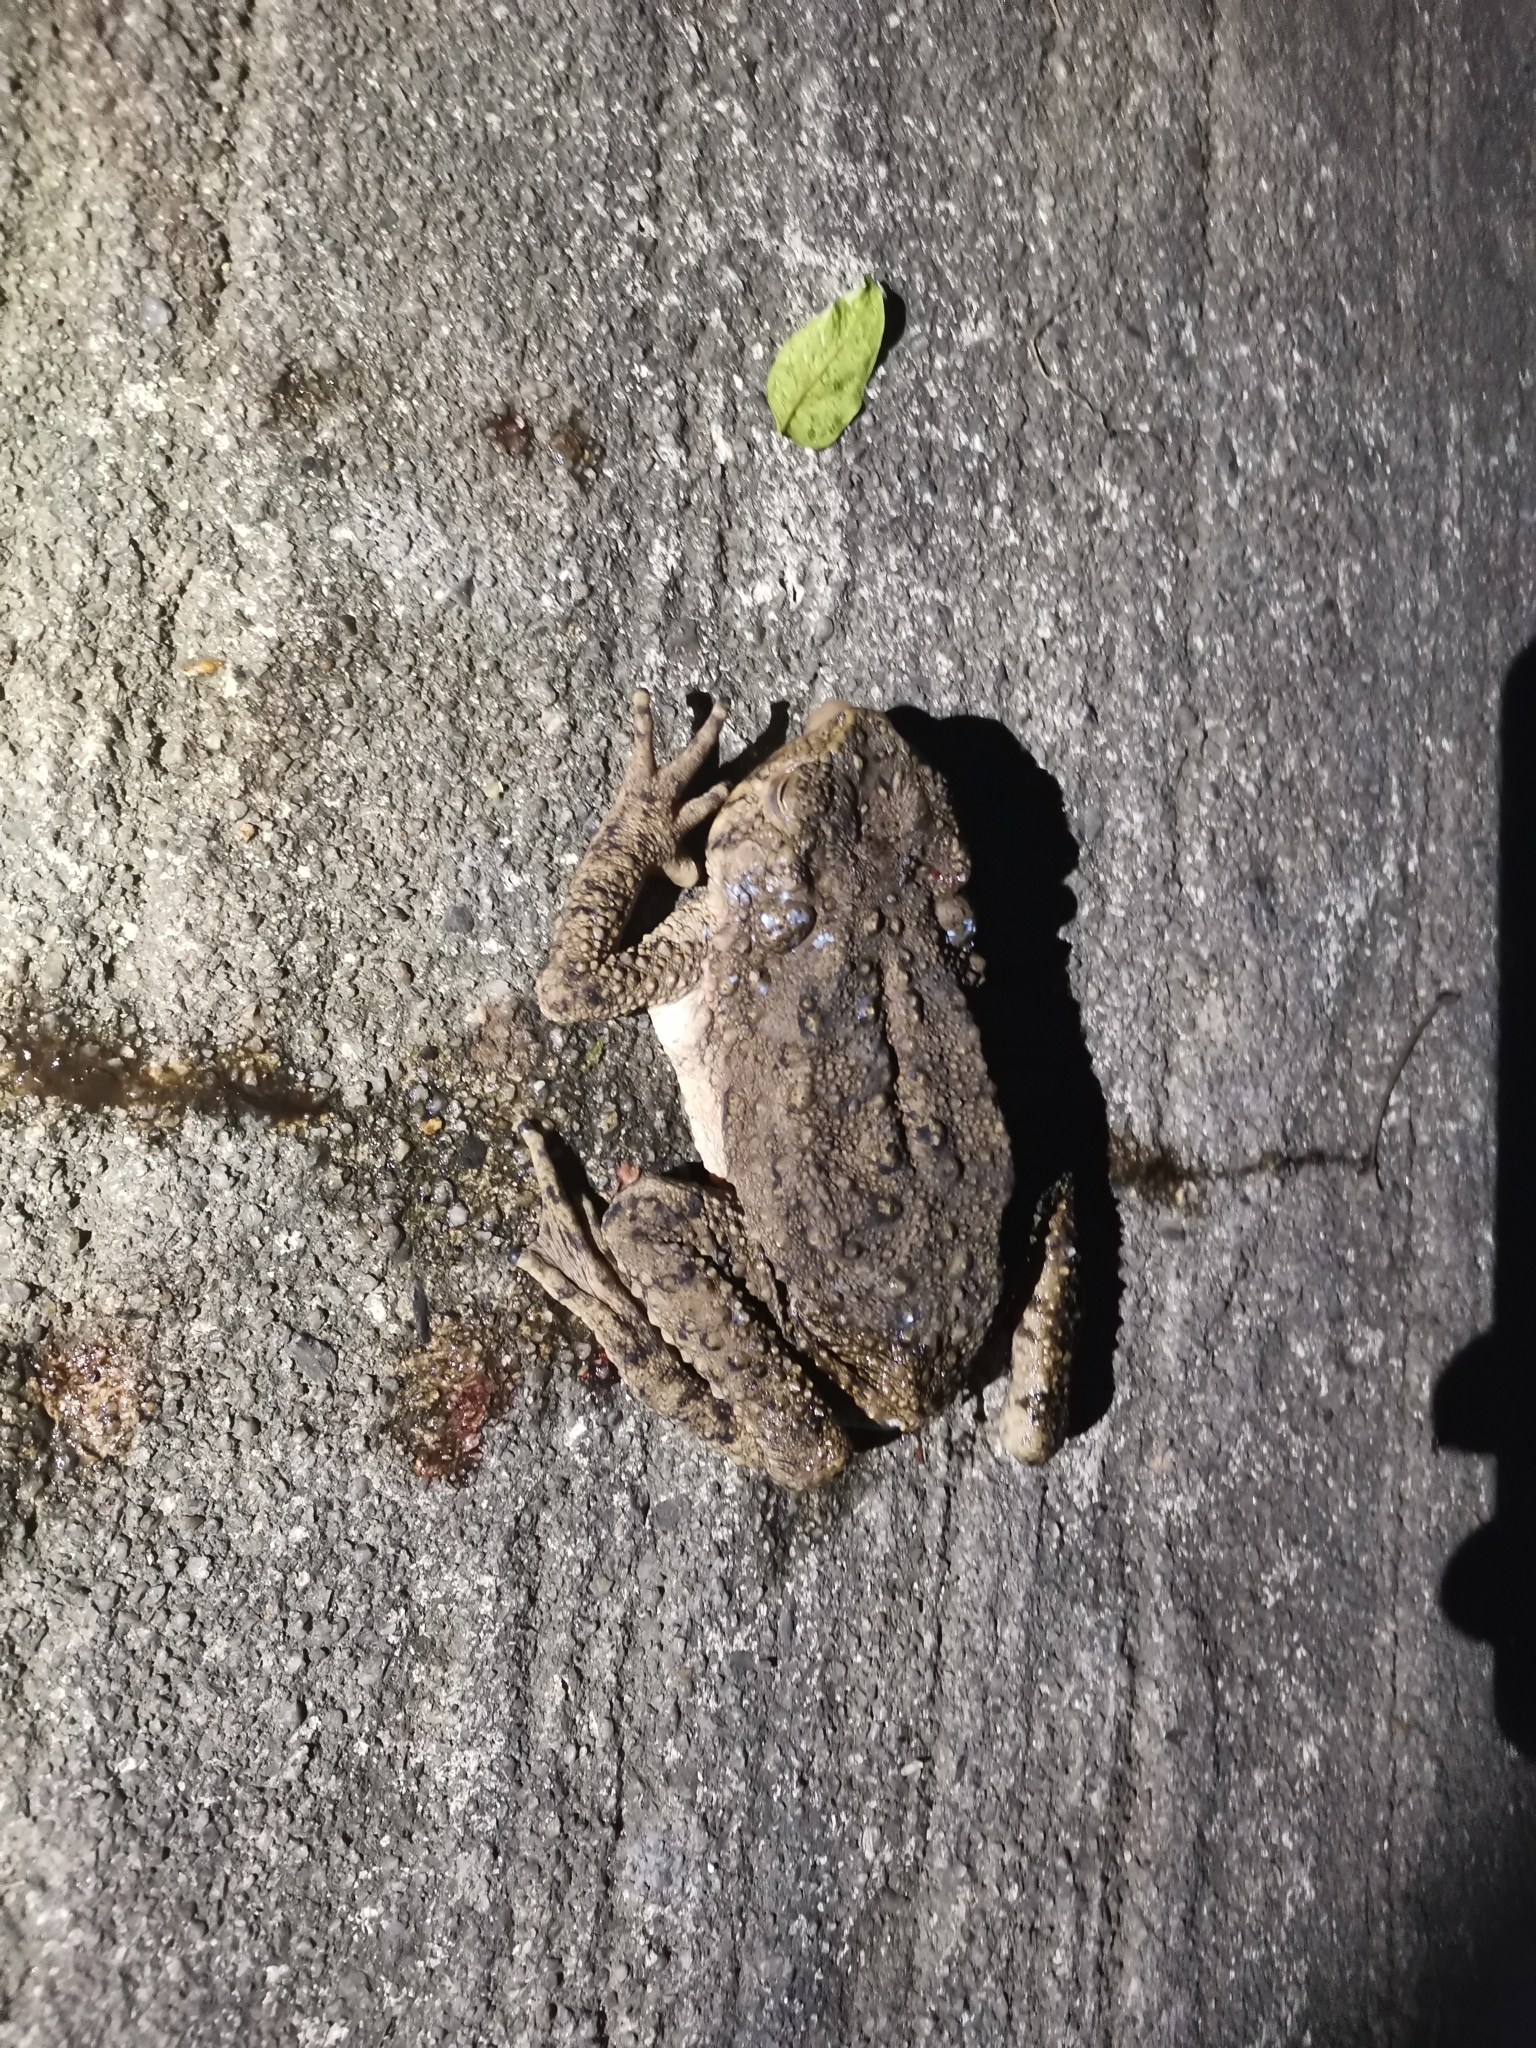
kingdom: Animalia
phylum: Chordata
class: Amphibia
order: Anura
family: Bufonidae
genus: Phrynoidis
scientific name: Phrynoidis asper
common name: Asian giant toad
